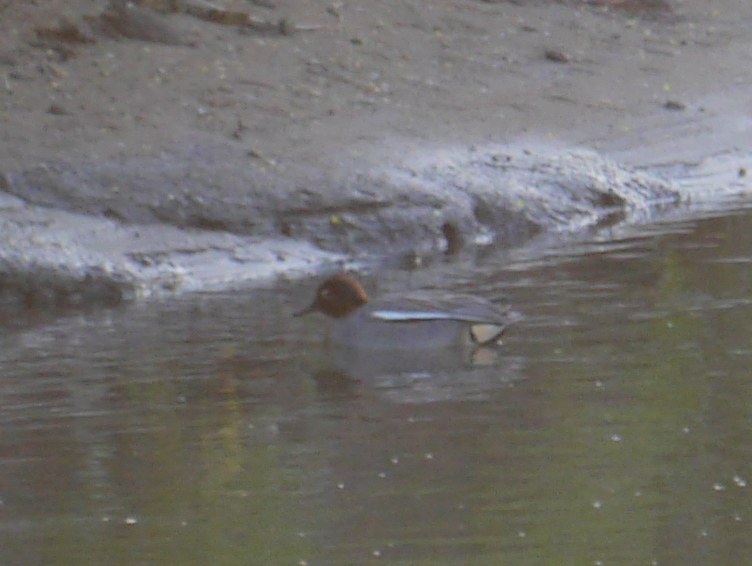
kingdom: Animalia
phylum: Chordata
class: Aves
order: Anseriformes
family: Anatidae
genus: Anas
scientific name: Anas crecca
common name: Eurasian teal
